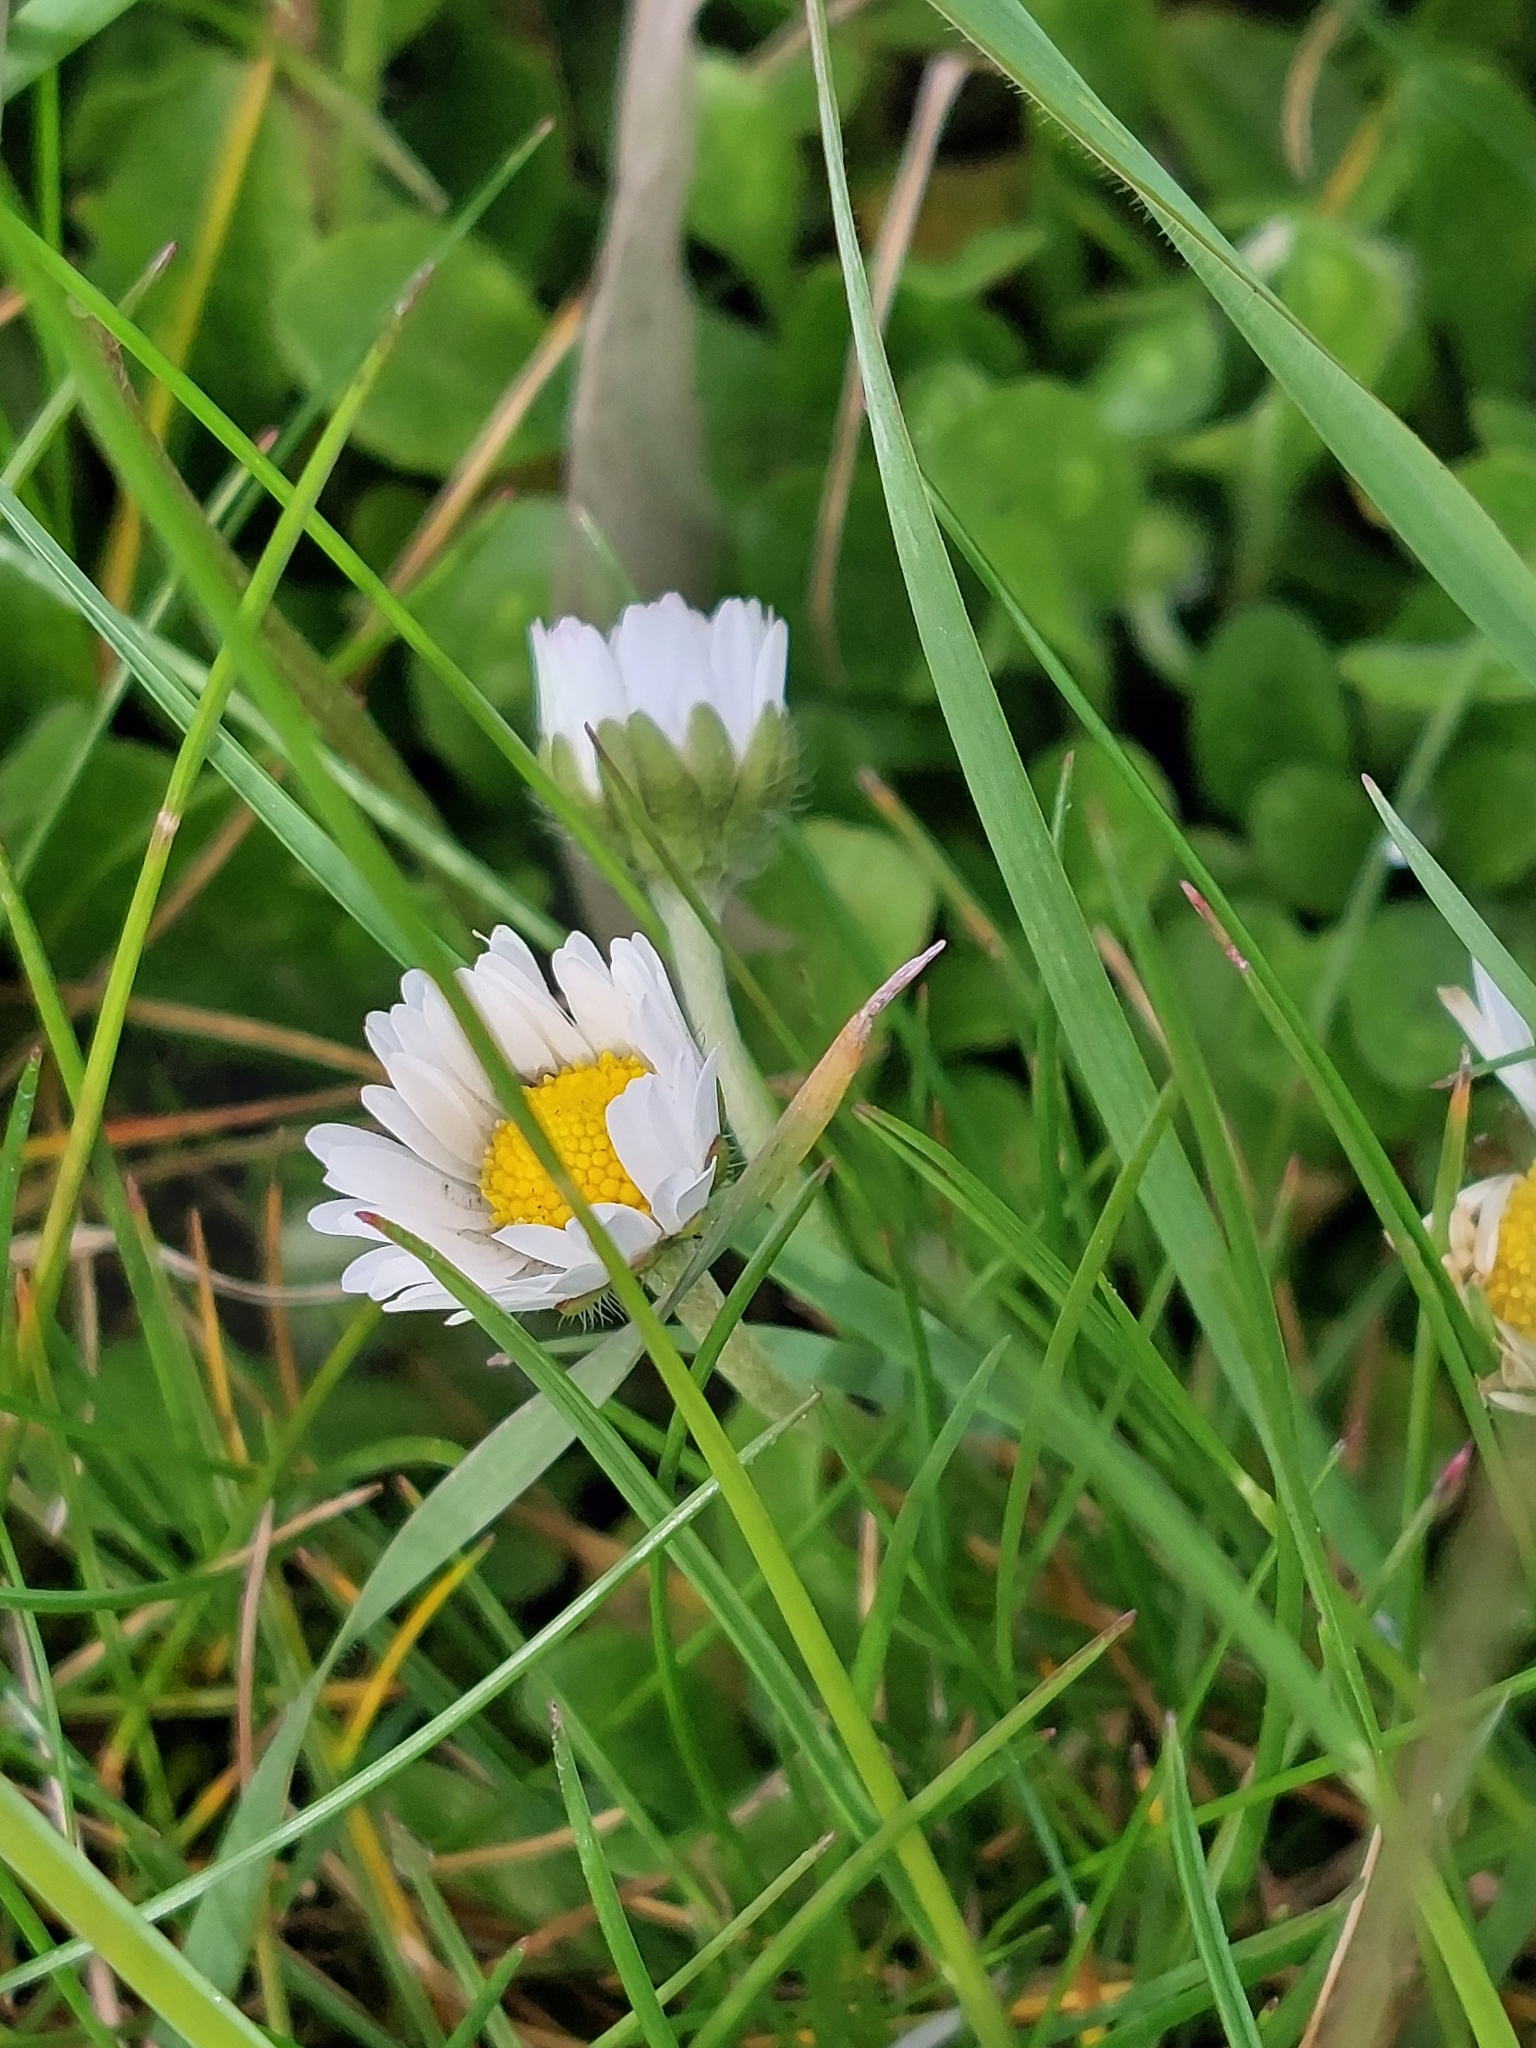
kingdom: Plantae
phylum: Tracheophyta
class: Magnoliopsida
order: Asterales
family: Asteraceae
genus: Bellis
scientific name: Bellis perennis
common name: Lawndaisy
